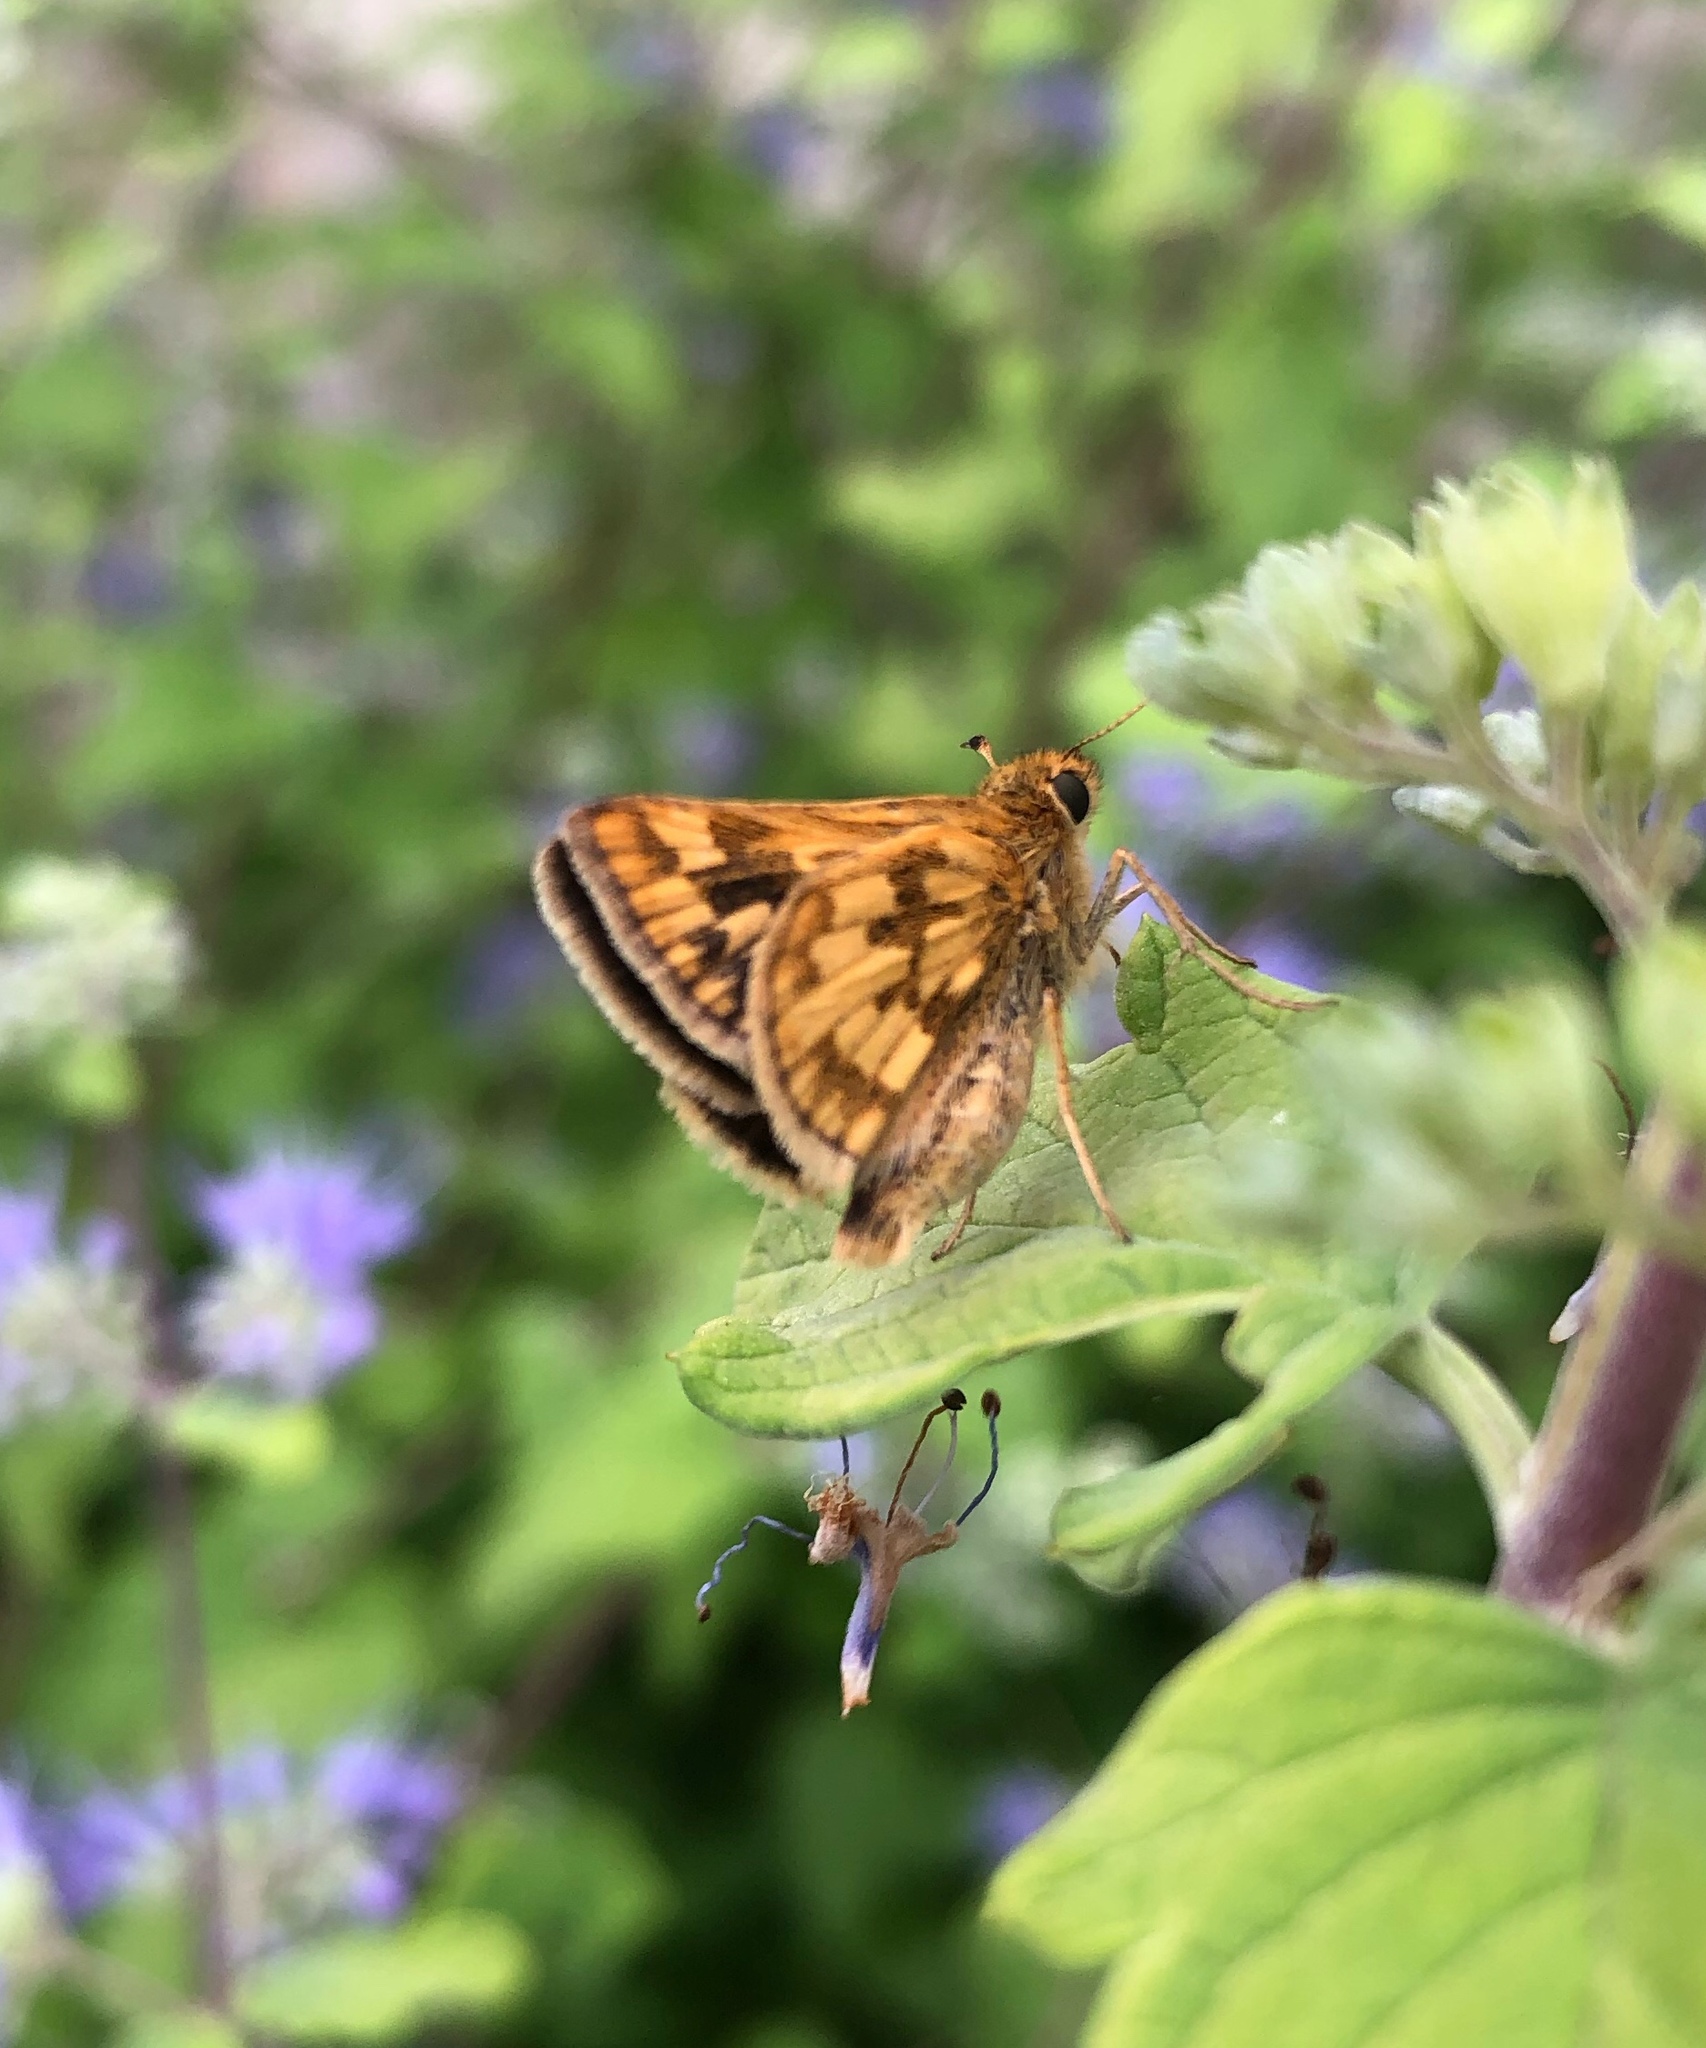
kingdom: Animalia
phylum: Arthropoda
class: Insecta
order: Lepidoptera
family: Hesperiidae
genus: Polites
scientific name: Polites coras
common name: Peck's skipper
